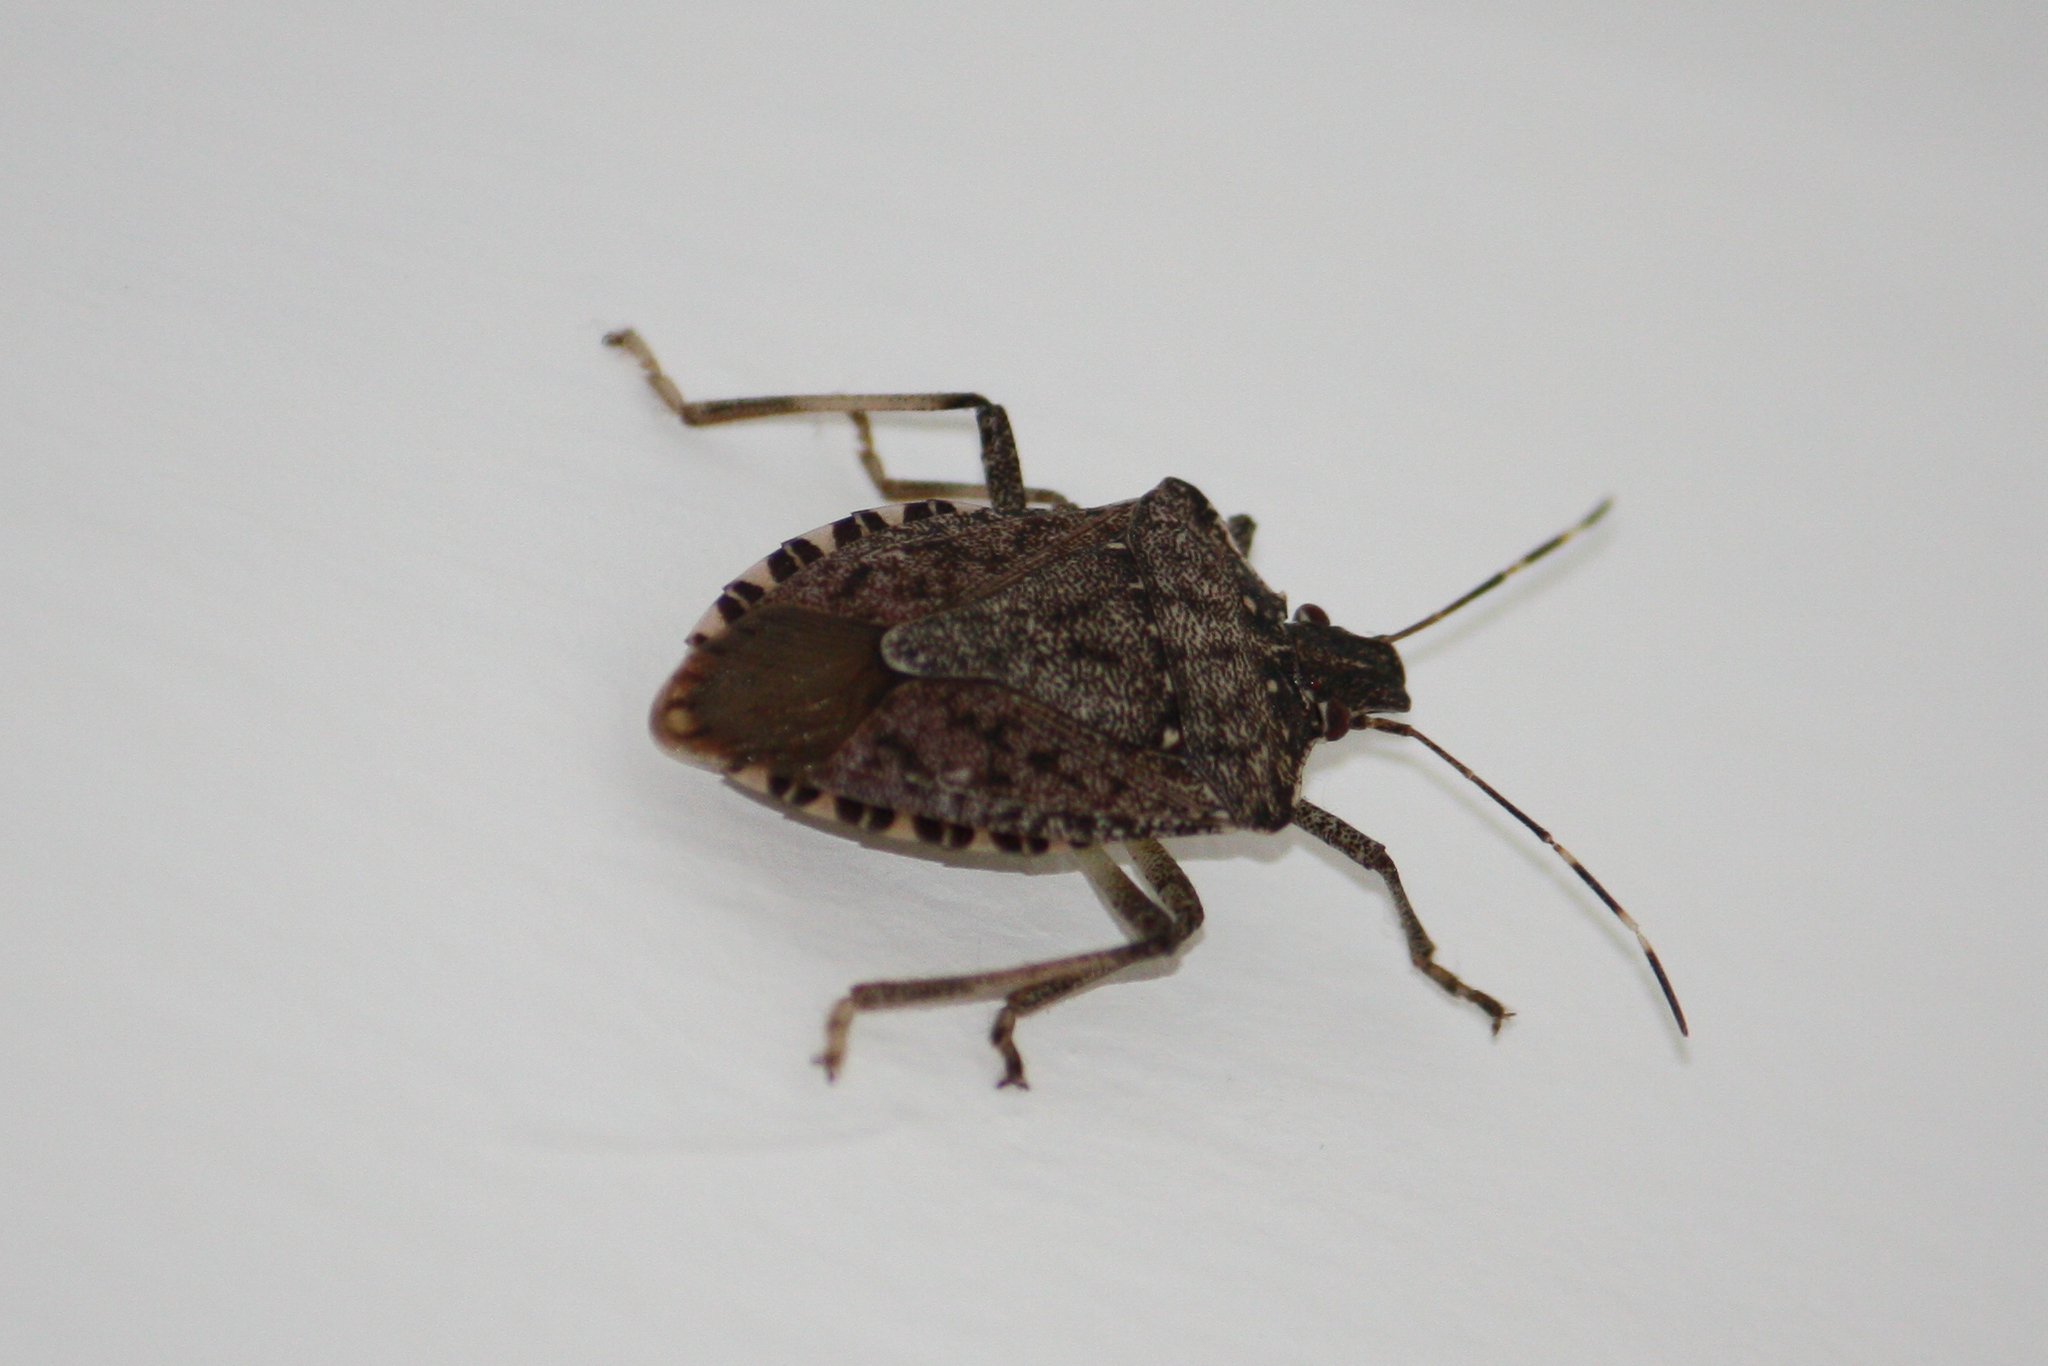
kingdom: Animalia
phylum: Arthropoda
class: Insecta
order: Hemiptera
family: Pentatomidae
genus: Halyomorpha
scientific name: Halyomorpha halys
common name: Brown marmorated stink bug
